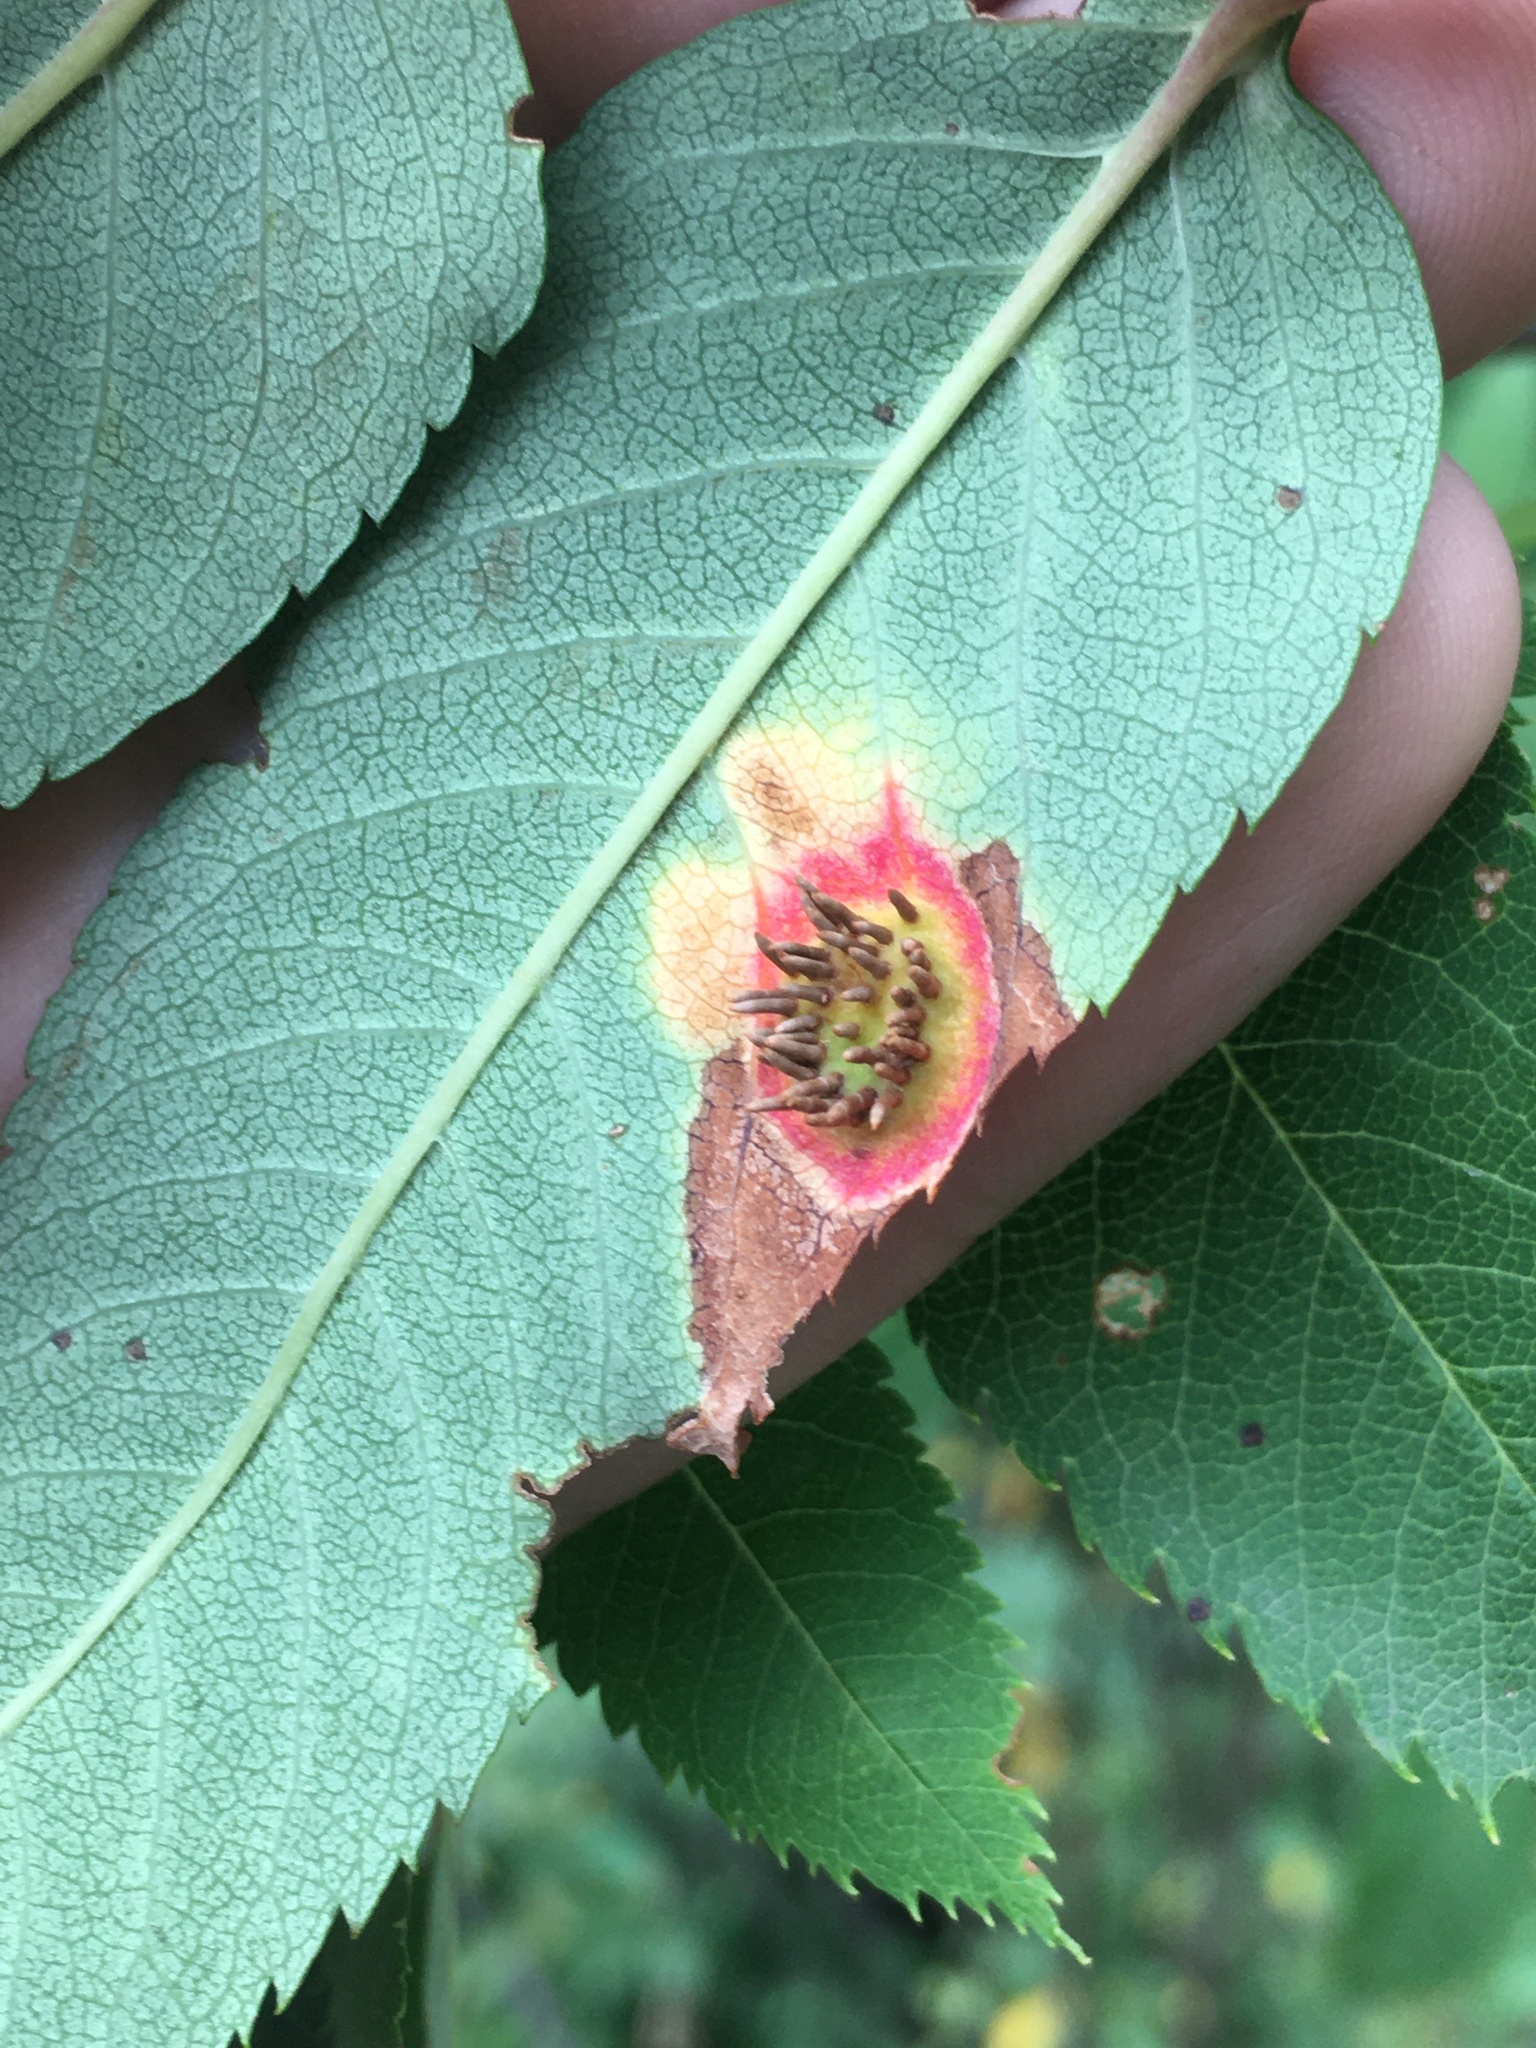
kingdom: Fungi
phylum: Basidiomycota
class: Pucciniomycetes
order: Pucciniales
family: Gymnosporangiaceae
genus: Gymnosporangium
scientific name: Gymnosporangium cornutum
